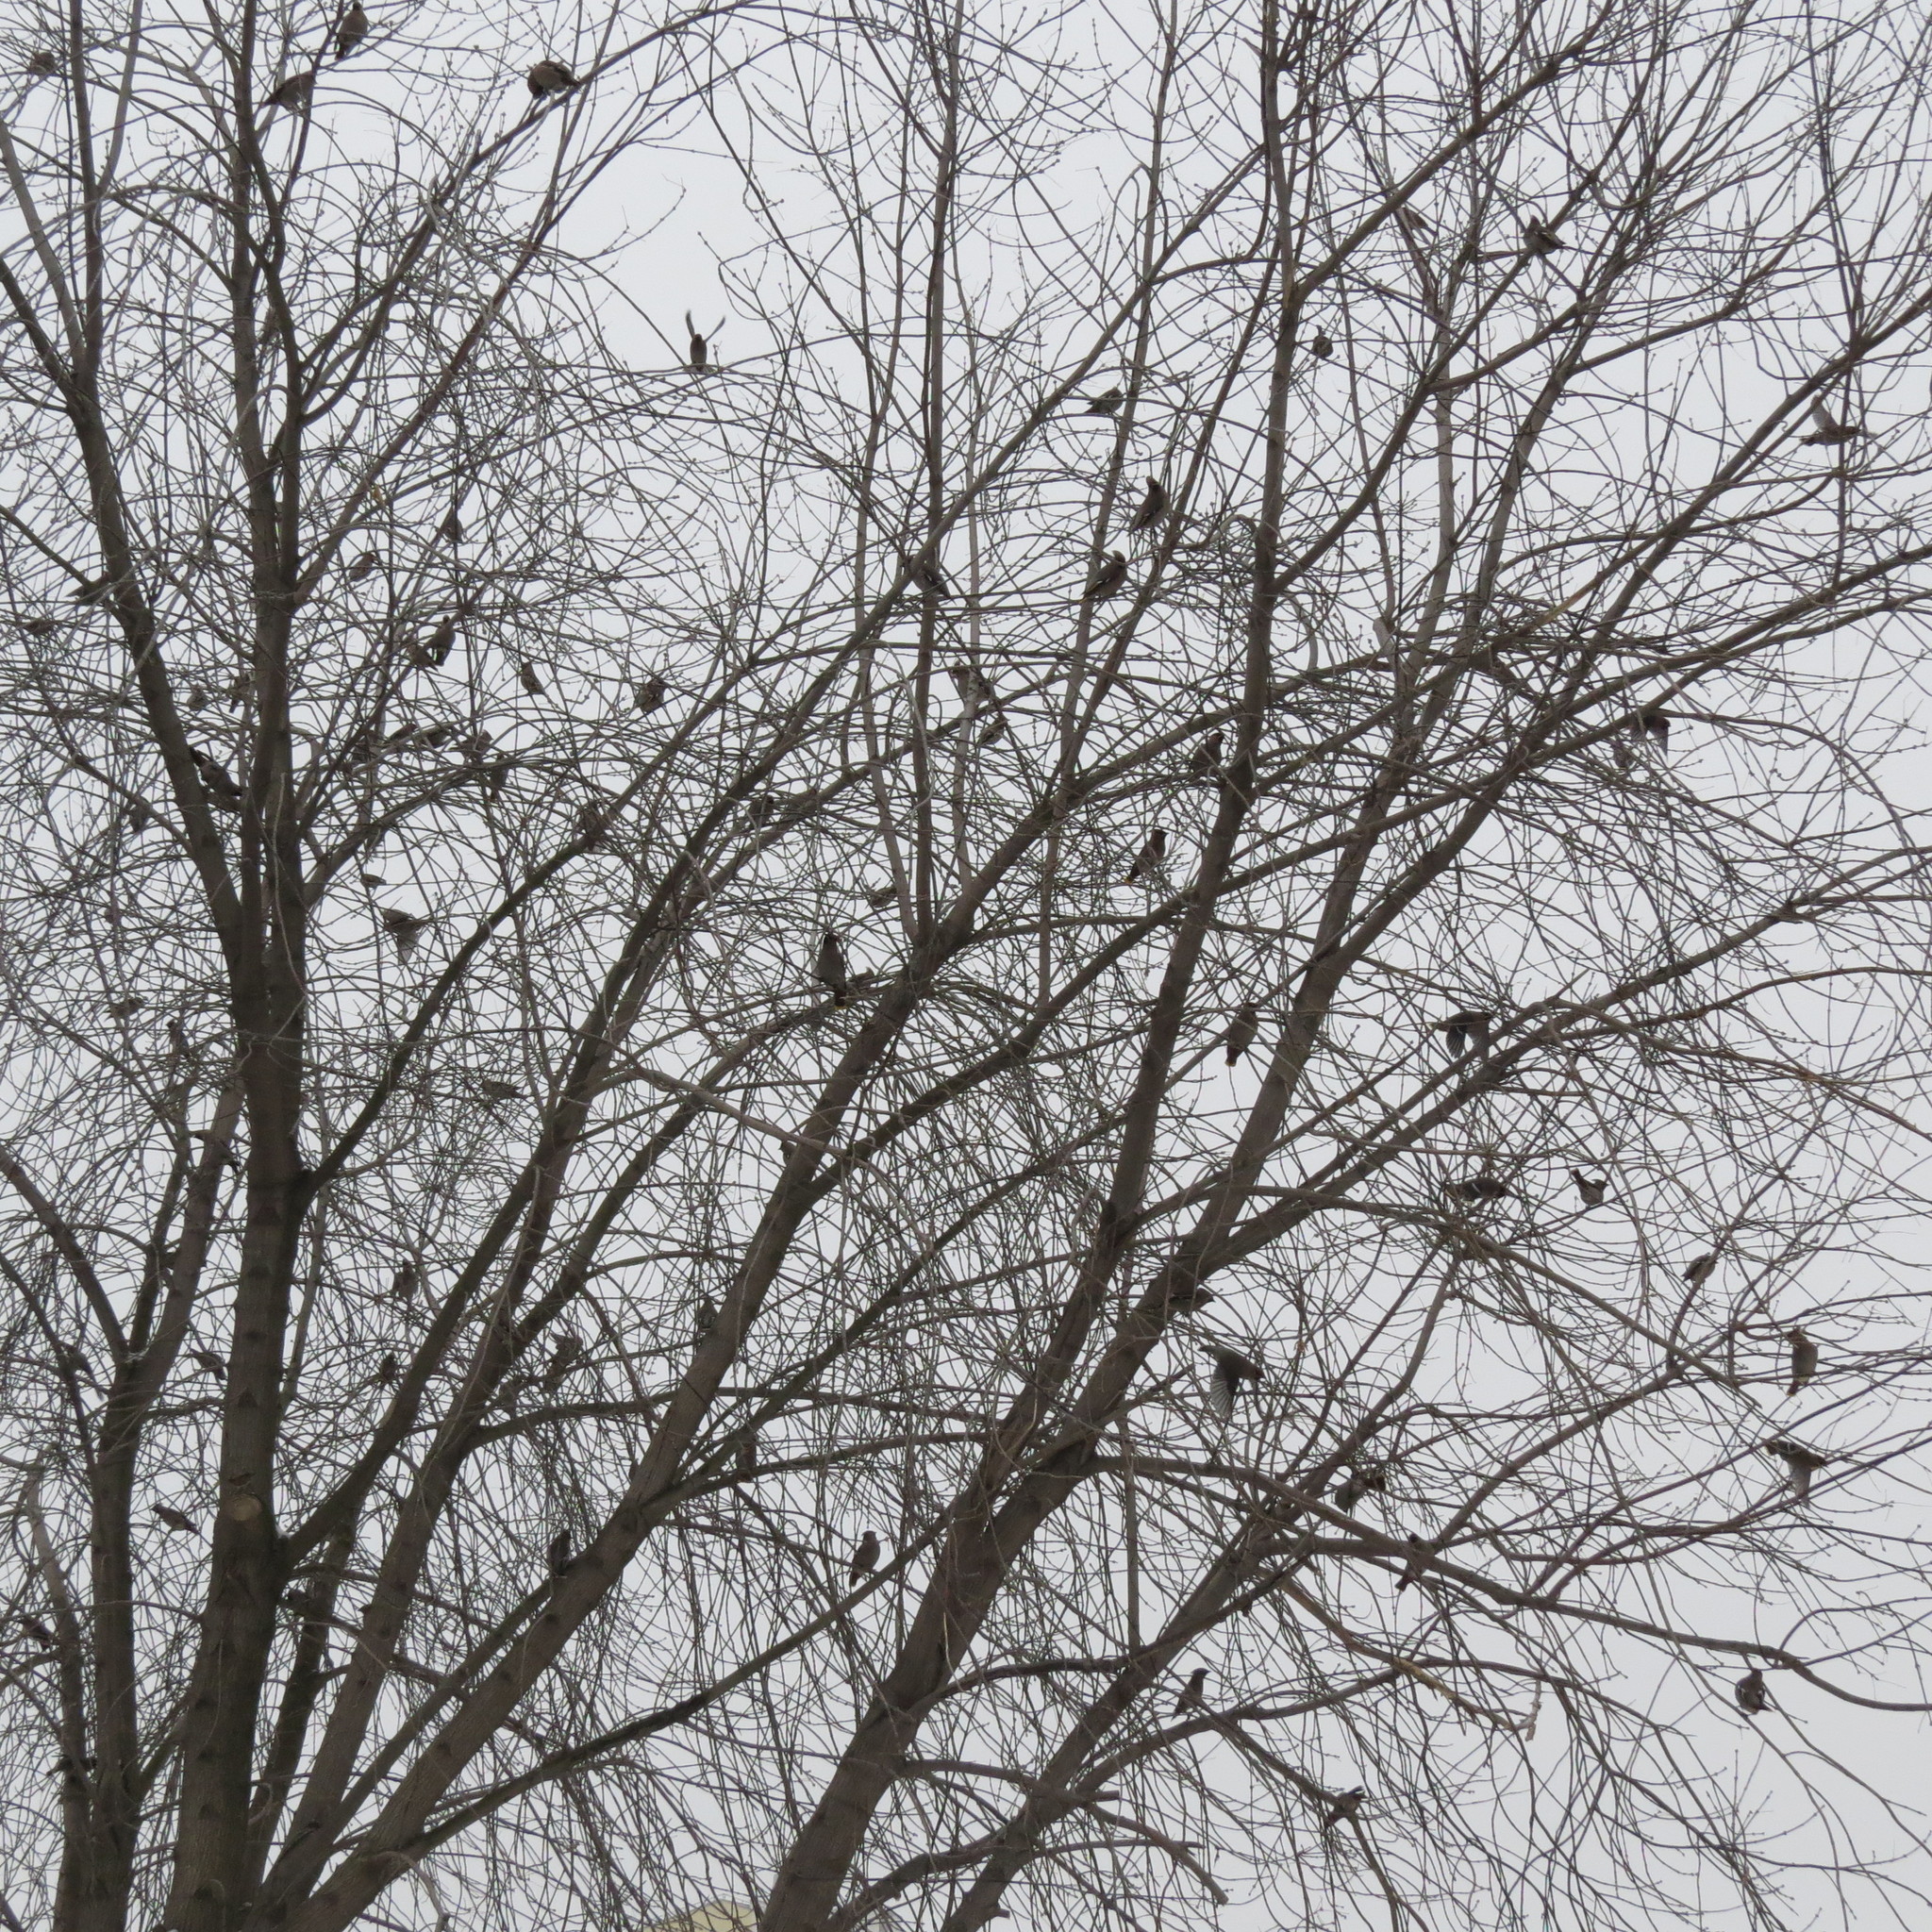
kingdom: Animalia
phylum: Chordata
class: Aves
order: Passeriformes
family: Bombycillidae
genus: Bombycilla
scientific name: Bombycilla garrulus
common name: Bohemian waxwing
